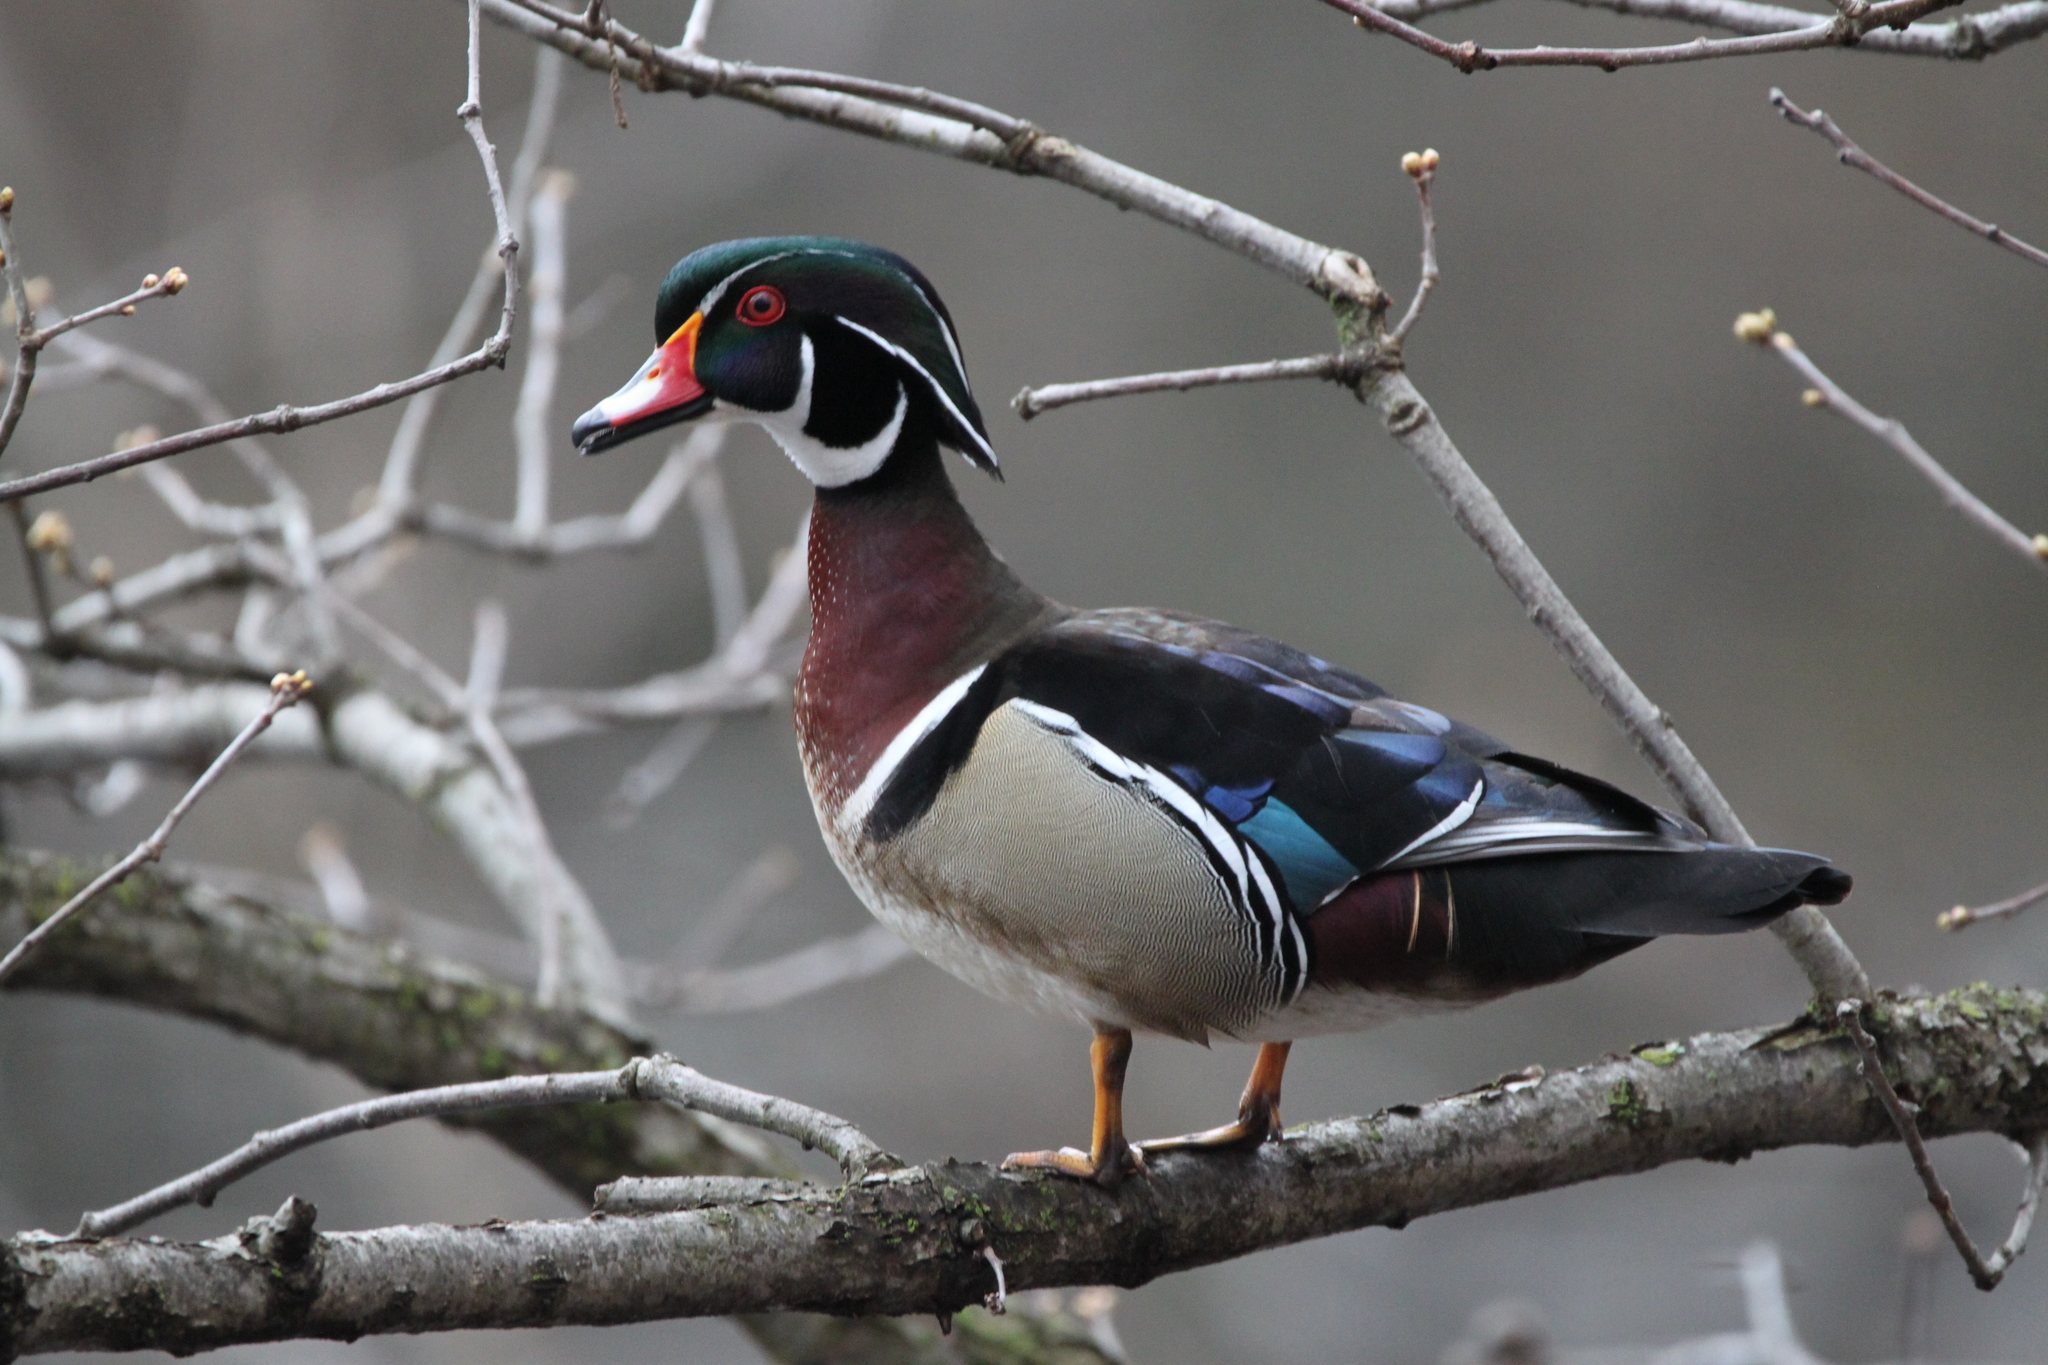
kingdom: Animalia
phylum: Chordata
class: Aves
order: Anseriformes
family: Anatidae
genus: Aix
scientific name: Aix sponsa
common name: Wood duck
